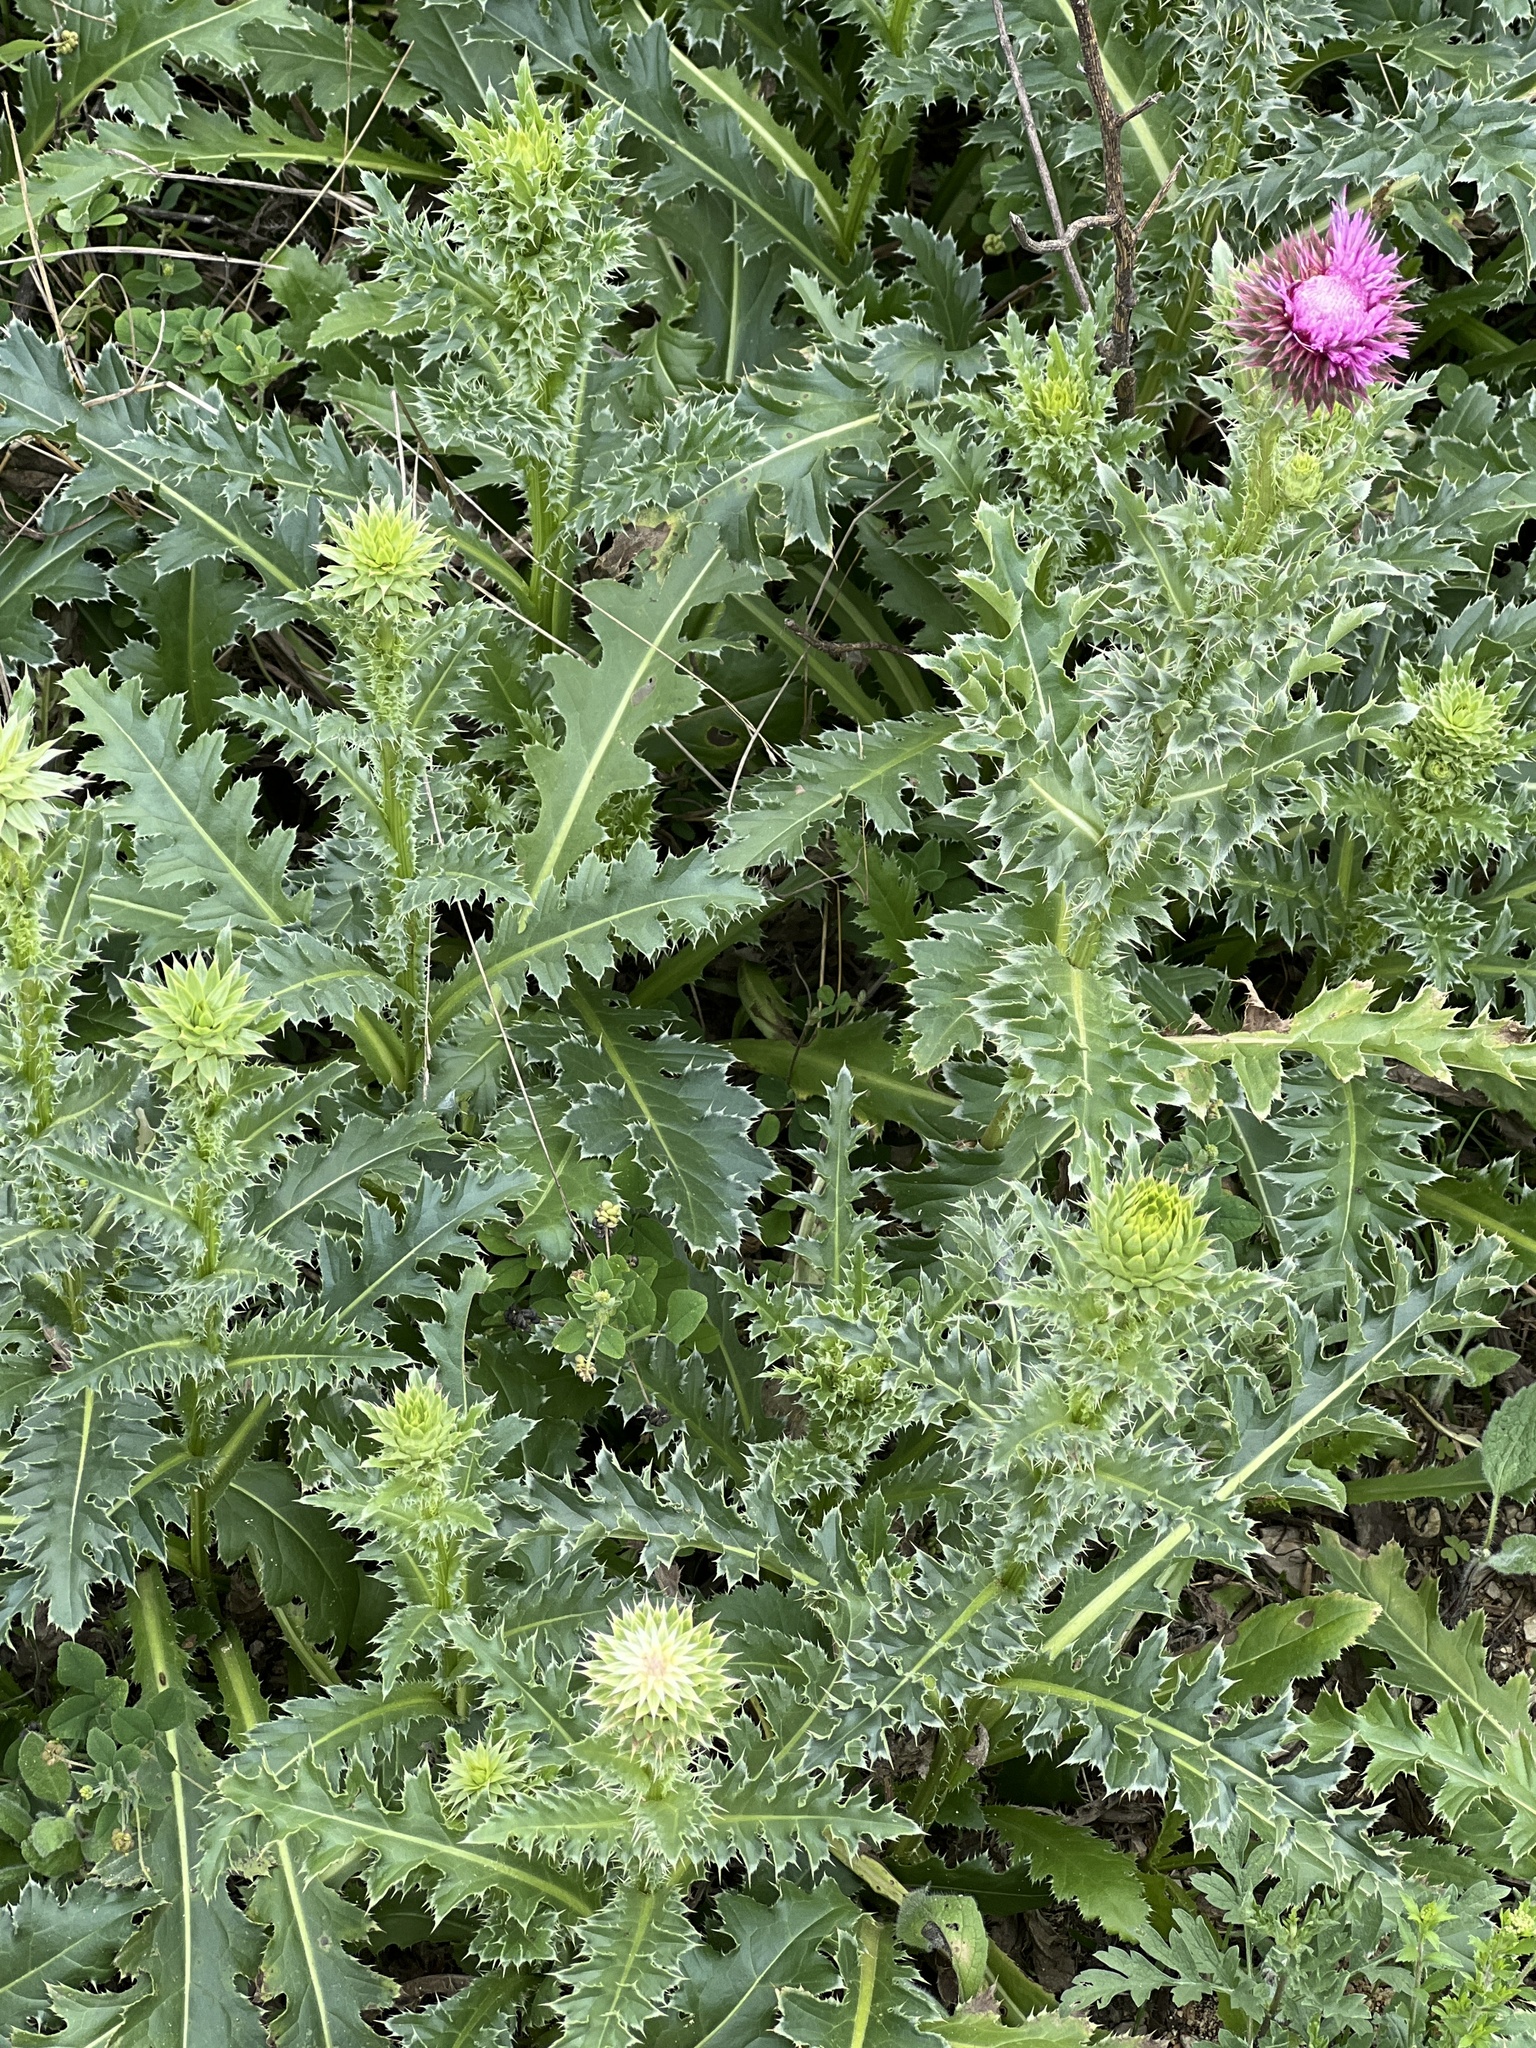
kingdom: Plantae
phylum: Tracheophyta
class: Magnoliopsida
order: Asterales
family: Asteraceae
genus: Carduus
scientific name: Carduus nutans
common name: Musk thistle
